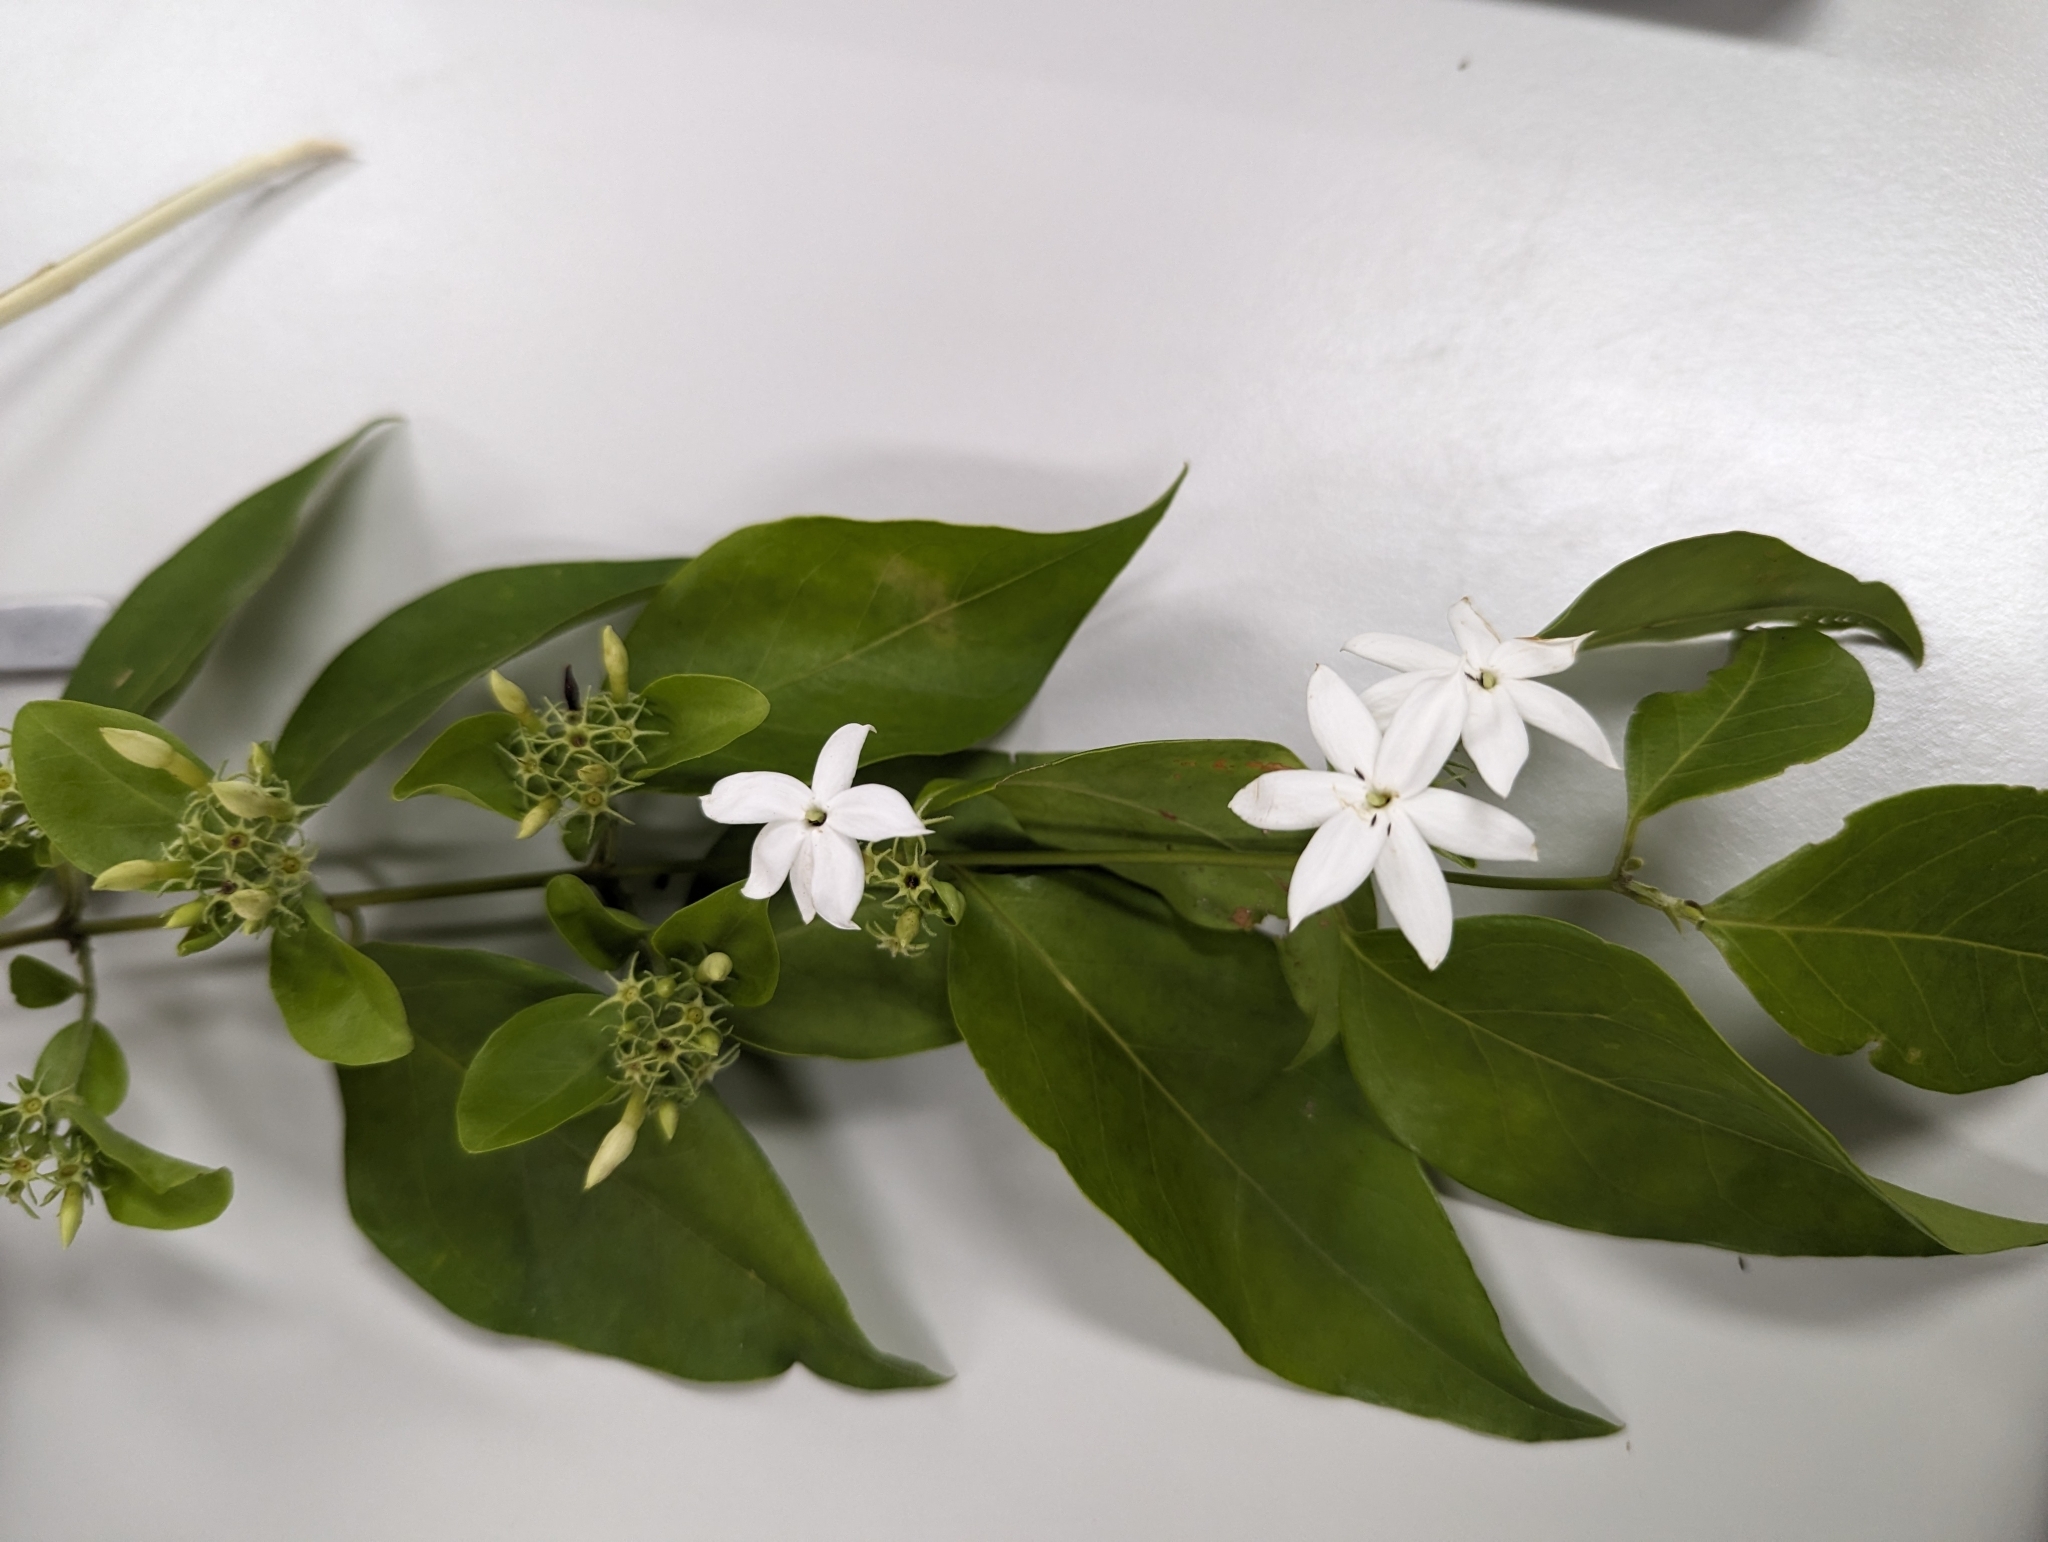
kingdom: Plantae
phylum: Tracheophyta
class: Magnoliopsida
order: Lamiales
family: Oleaceae
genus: Jasminum
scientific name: Jasminum elongatum
